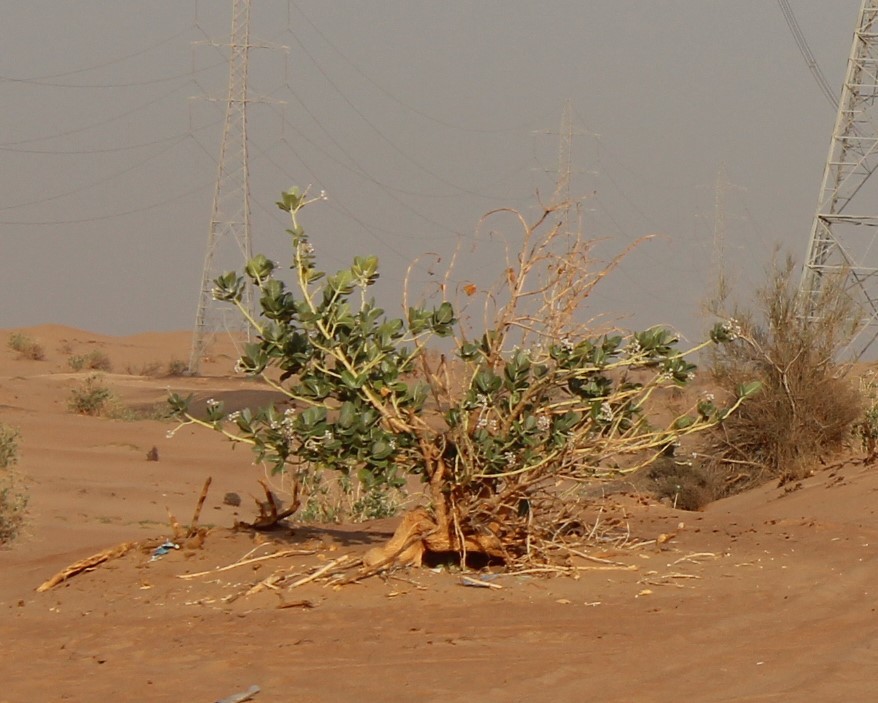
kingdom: Plantae
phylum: Tracheophyta
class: Magnoliopsida
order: Gentianales
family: Apocynaceae
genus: Calotropis
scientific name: Calotropis procera
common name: Roostertree
